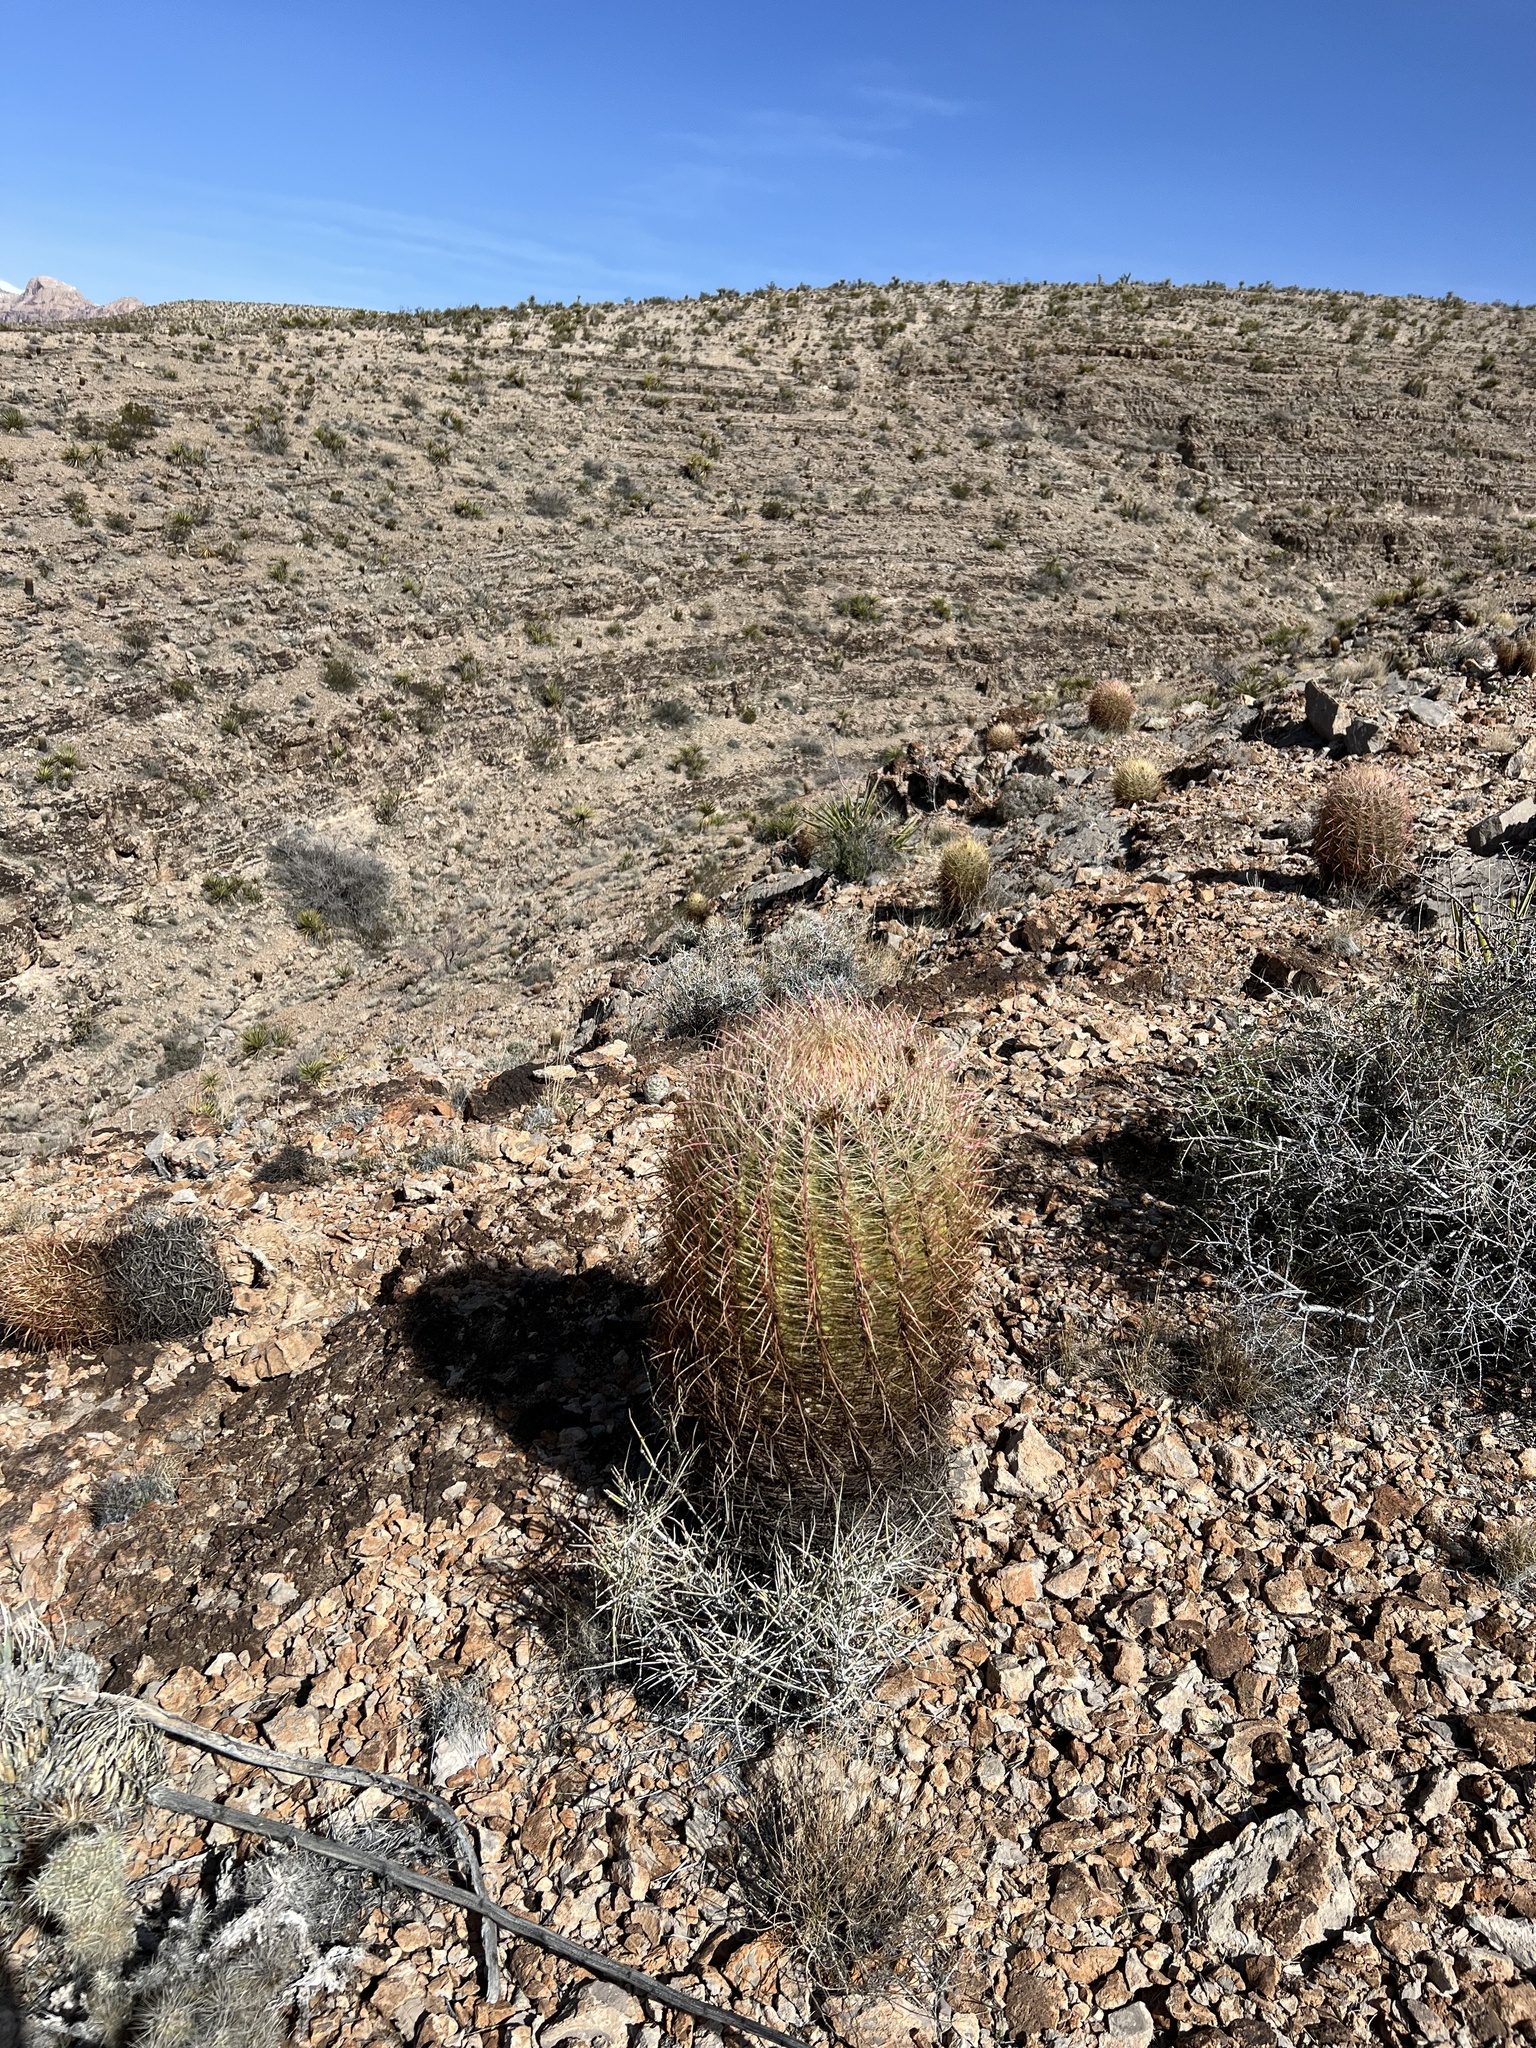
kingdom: Plantae
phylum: Tracheophyta
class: Magnoliopsida
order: Caryophyllales
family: Cactaceae
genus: Ferocactus
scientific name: Ferocactus cylindraceus
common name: California barrel cactus
